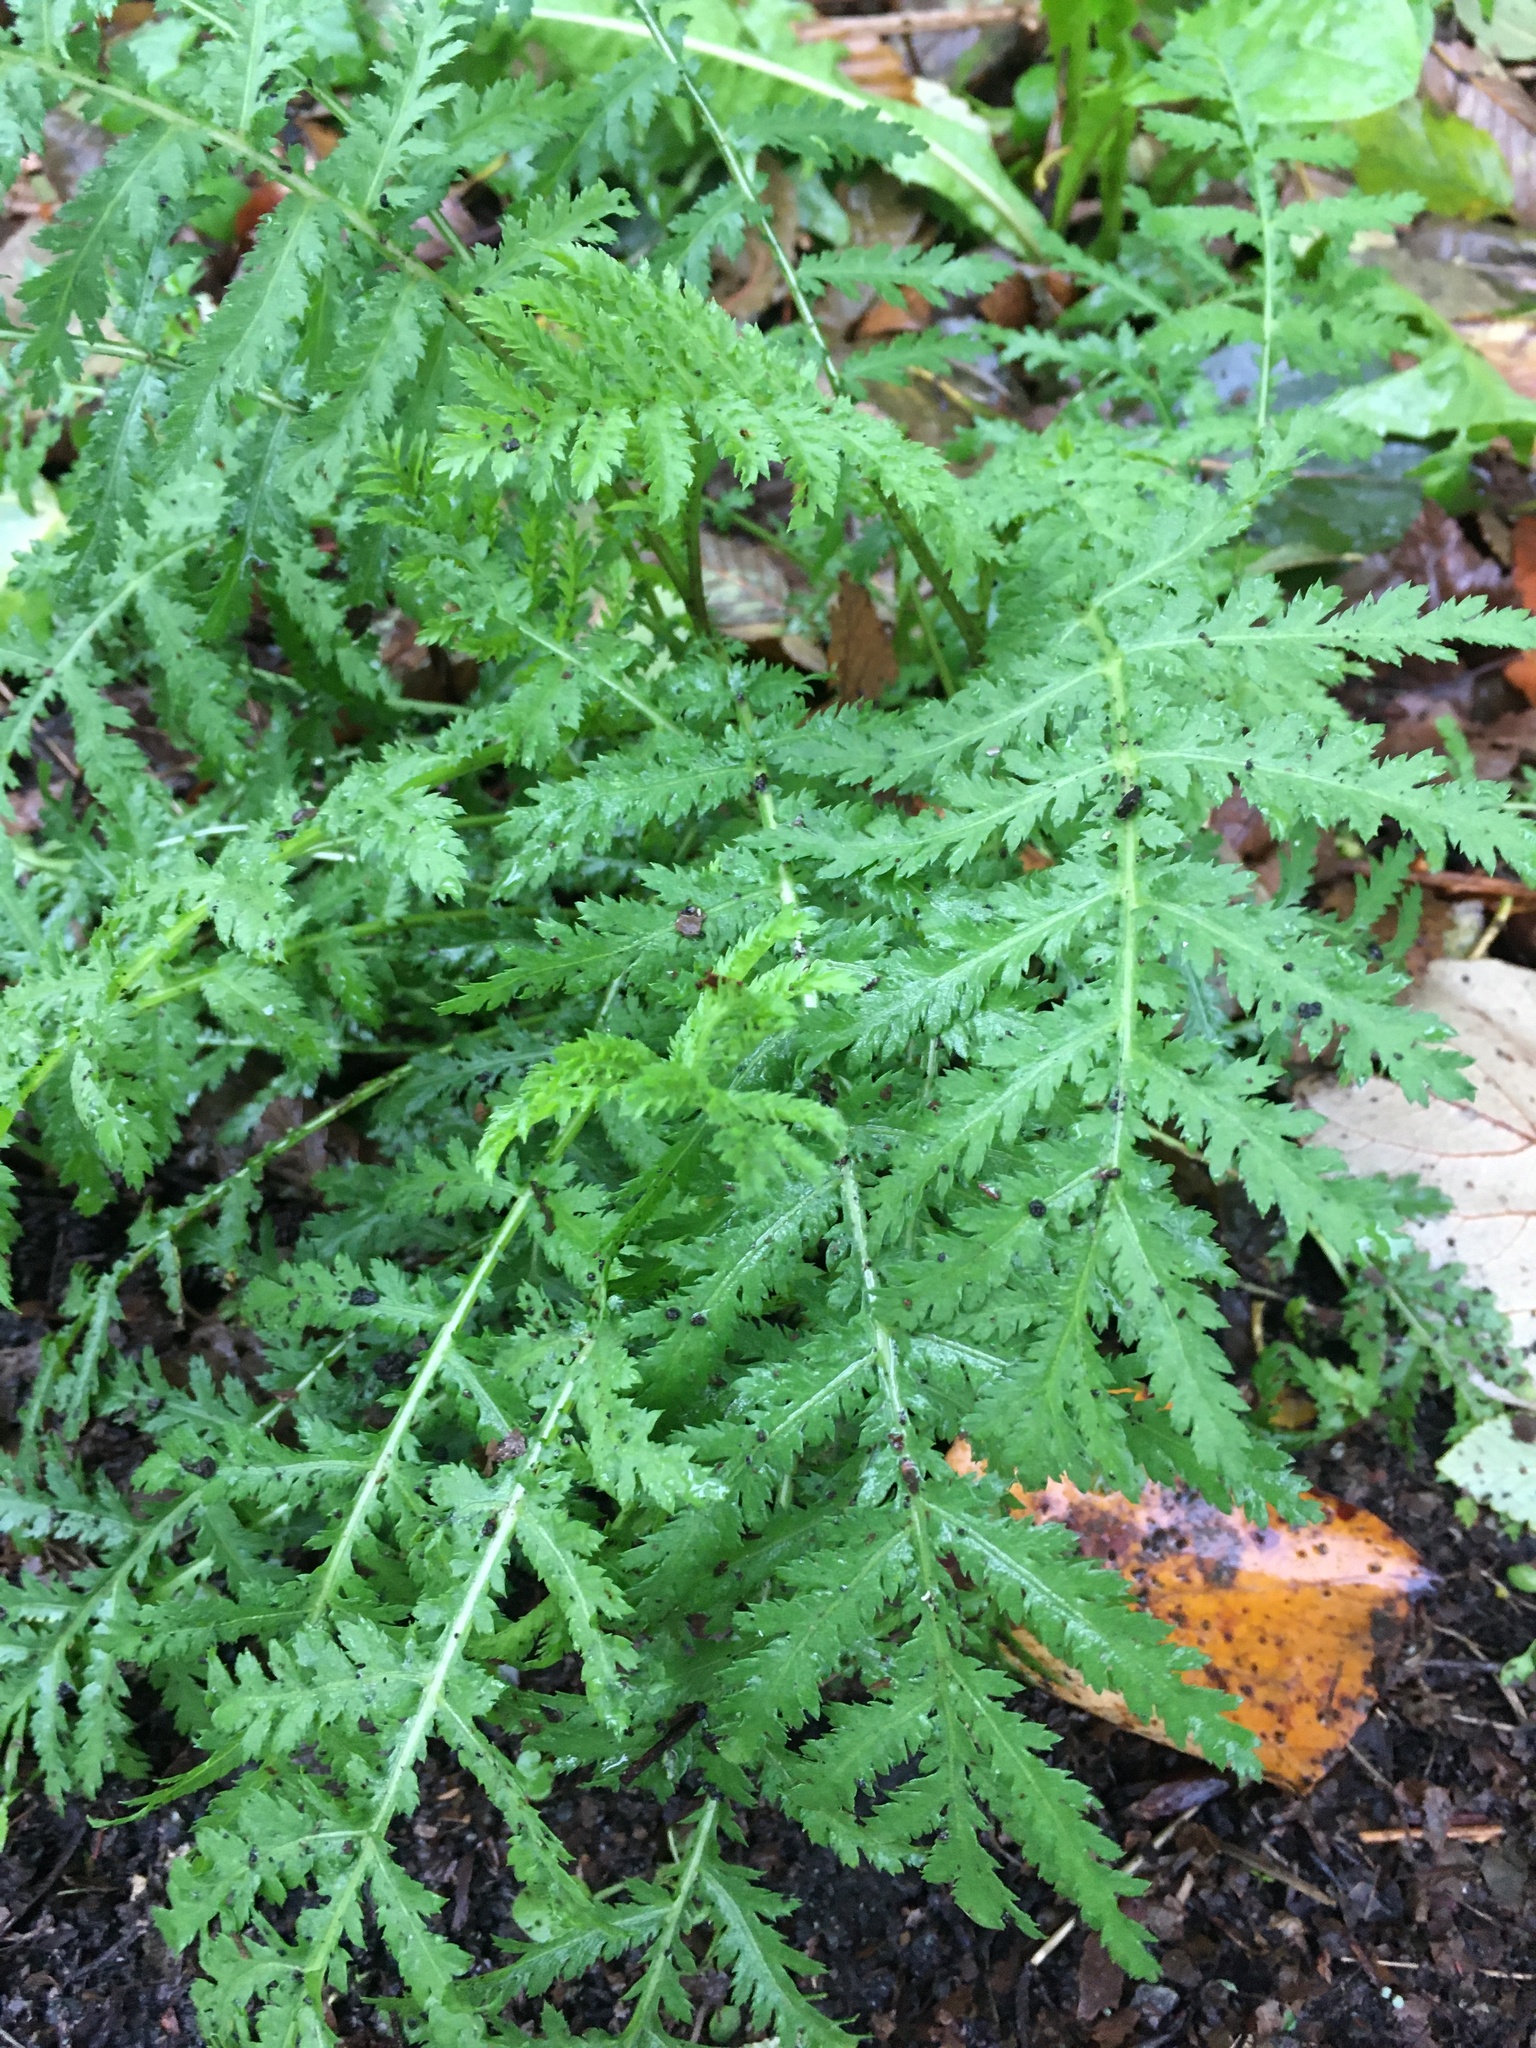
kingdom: Plantae
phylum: Tracheophyta
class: Magnoliopsida
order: Asterales
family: Asteraceae
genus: Tanacetum
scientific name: Tanacetum vulgare
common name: Common tansy
